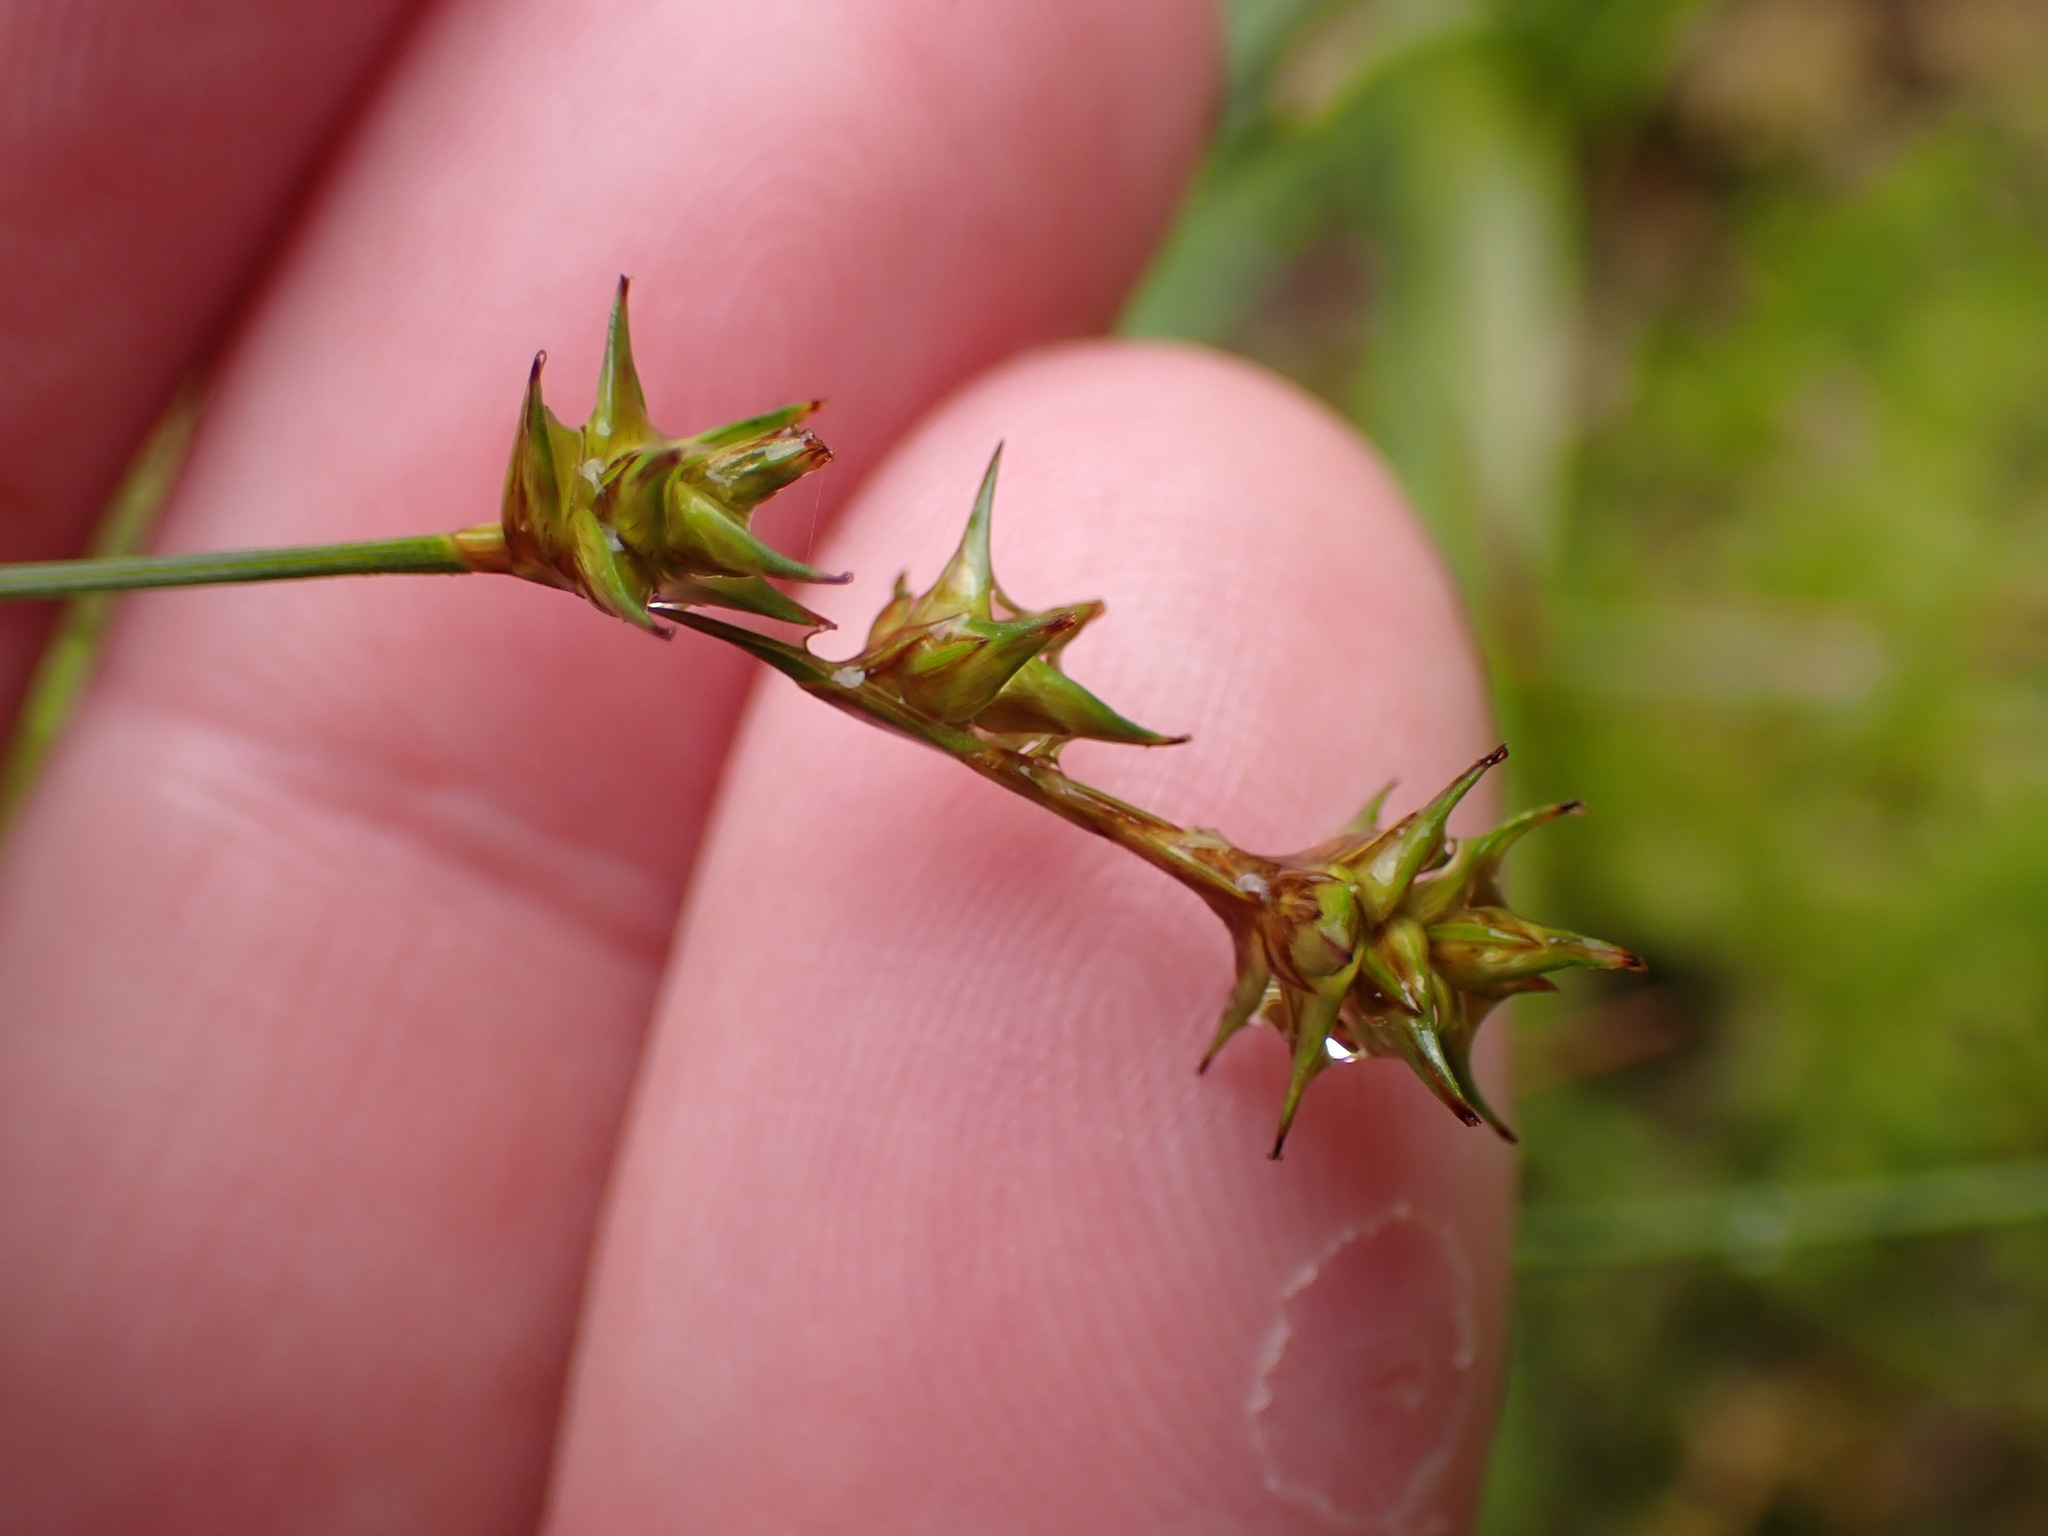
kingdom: Plantae
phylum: Tracheophyta
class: Liliopsida
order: Poales
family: Cyperaceae
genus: Carex
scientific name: Carex echinata
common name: Star sedge
